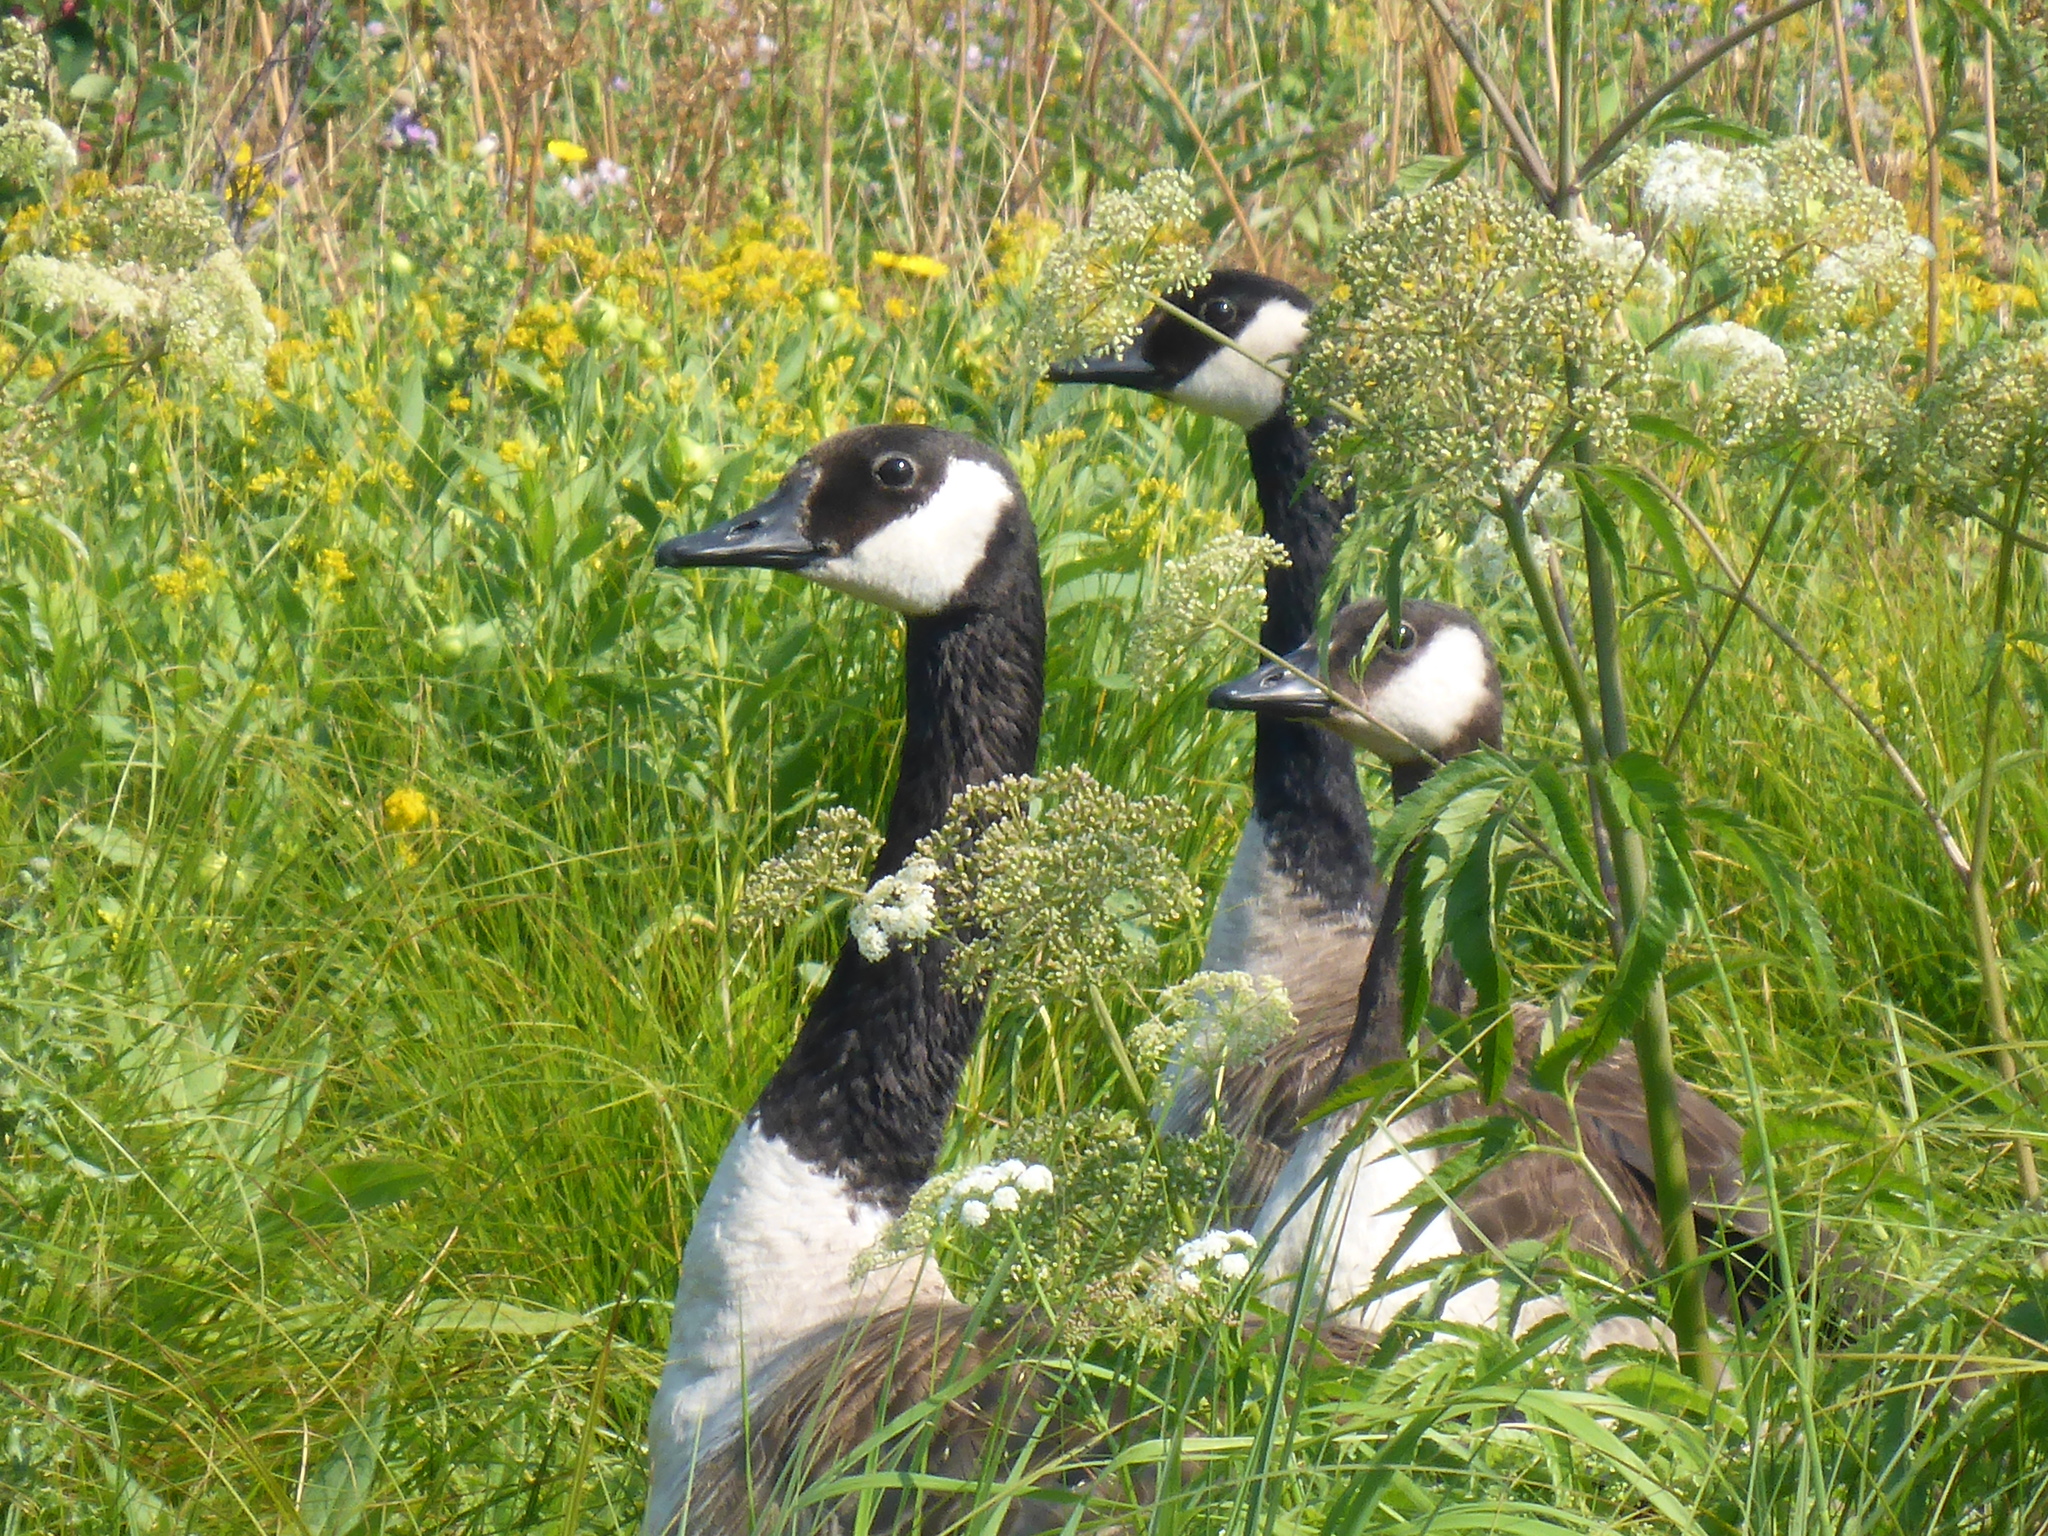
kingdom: Animalia
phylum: Chordata
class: Aves
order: Anseriformes
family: Anatidae
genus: Branta
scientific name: Branta canadensis
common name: Canada goose
